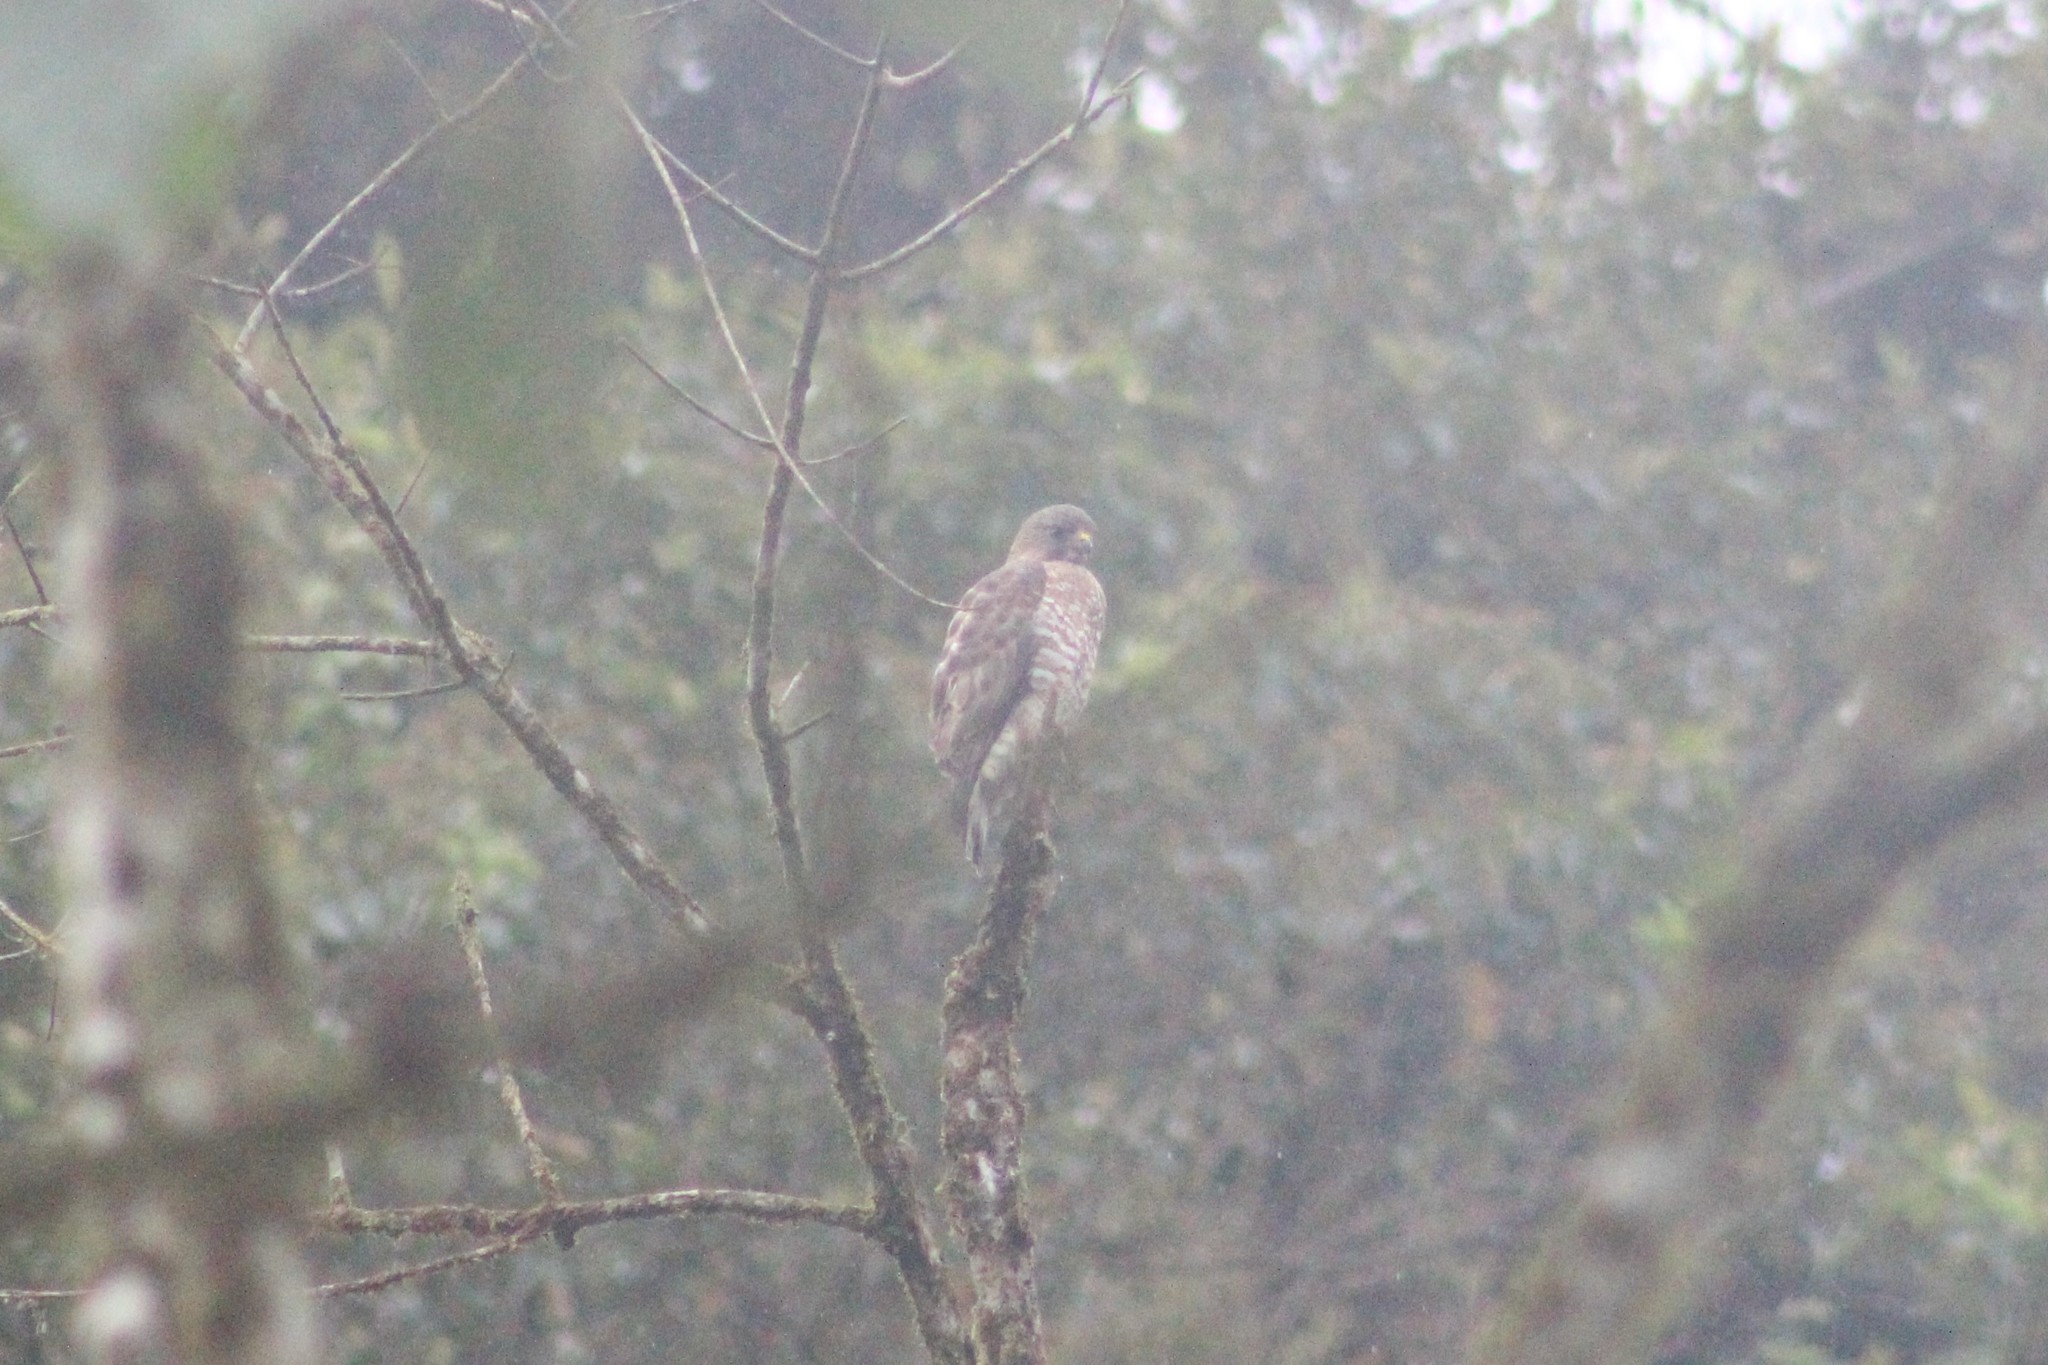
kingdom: Animalia
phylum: Chordata
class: Aves
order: Accipitriformes
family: Accipitridae
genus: Rupornis
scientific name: Rupornis magnirostris
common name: Roadside hawk
